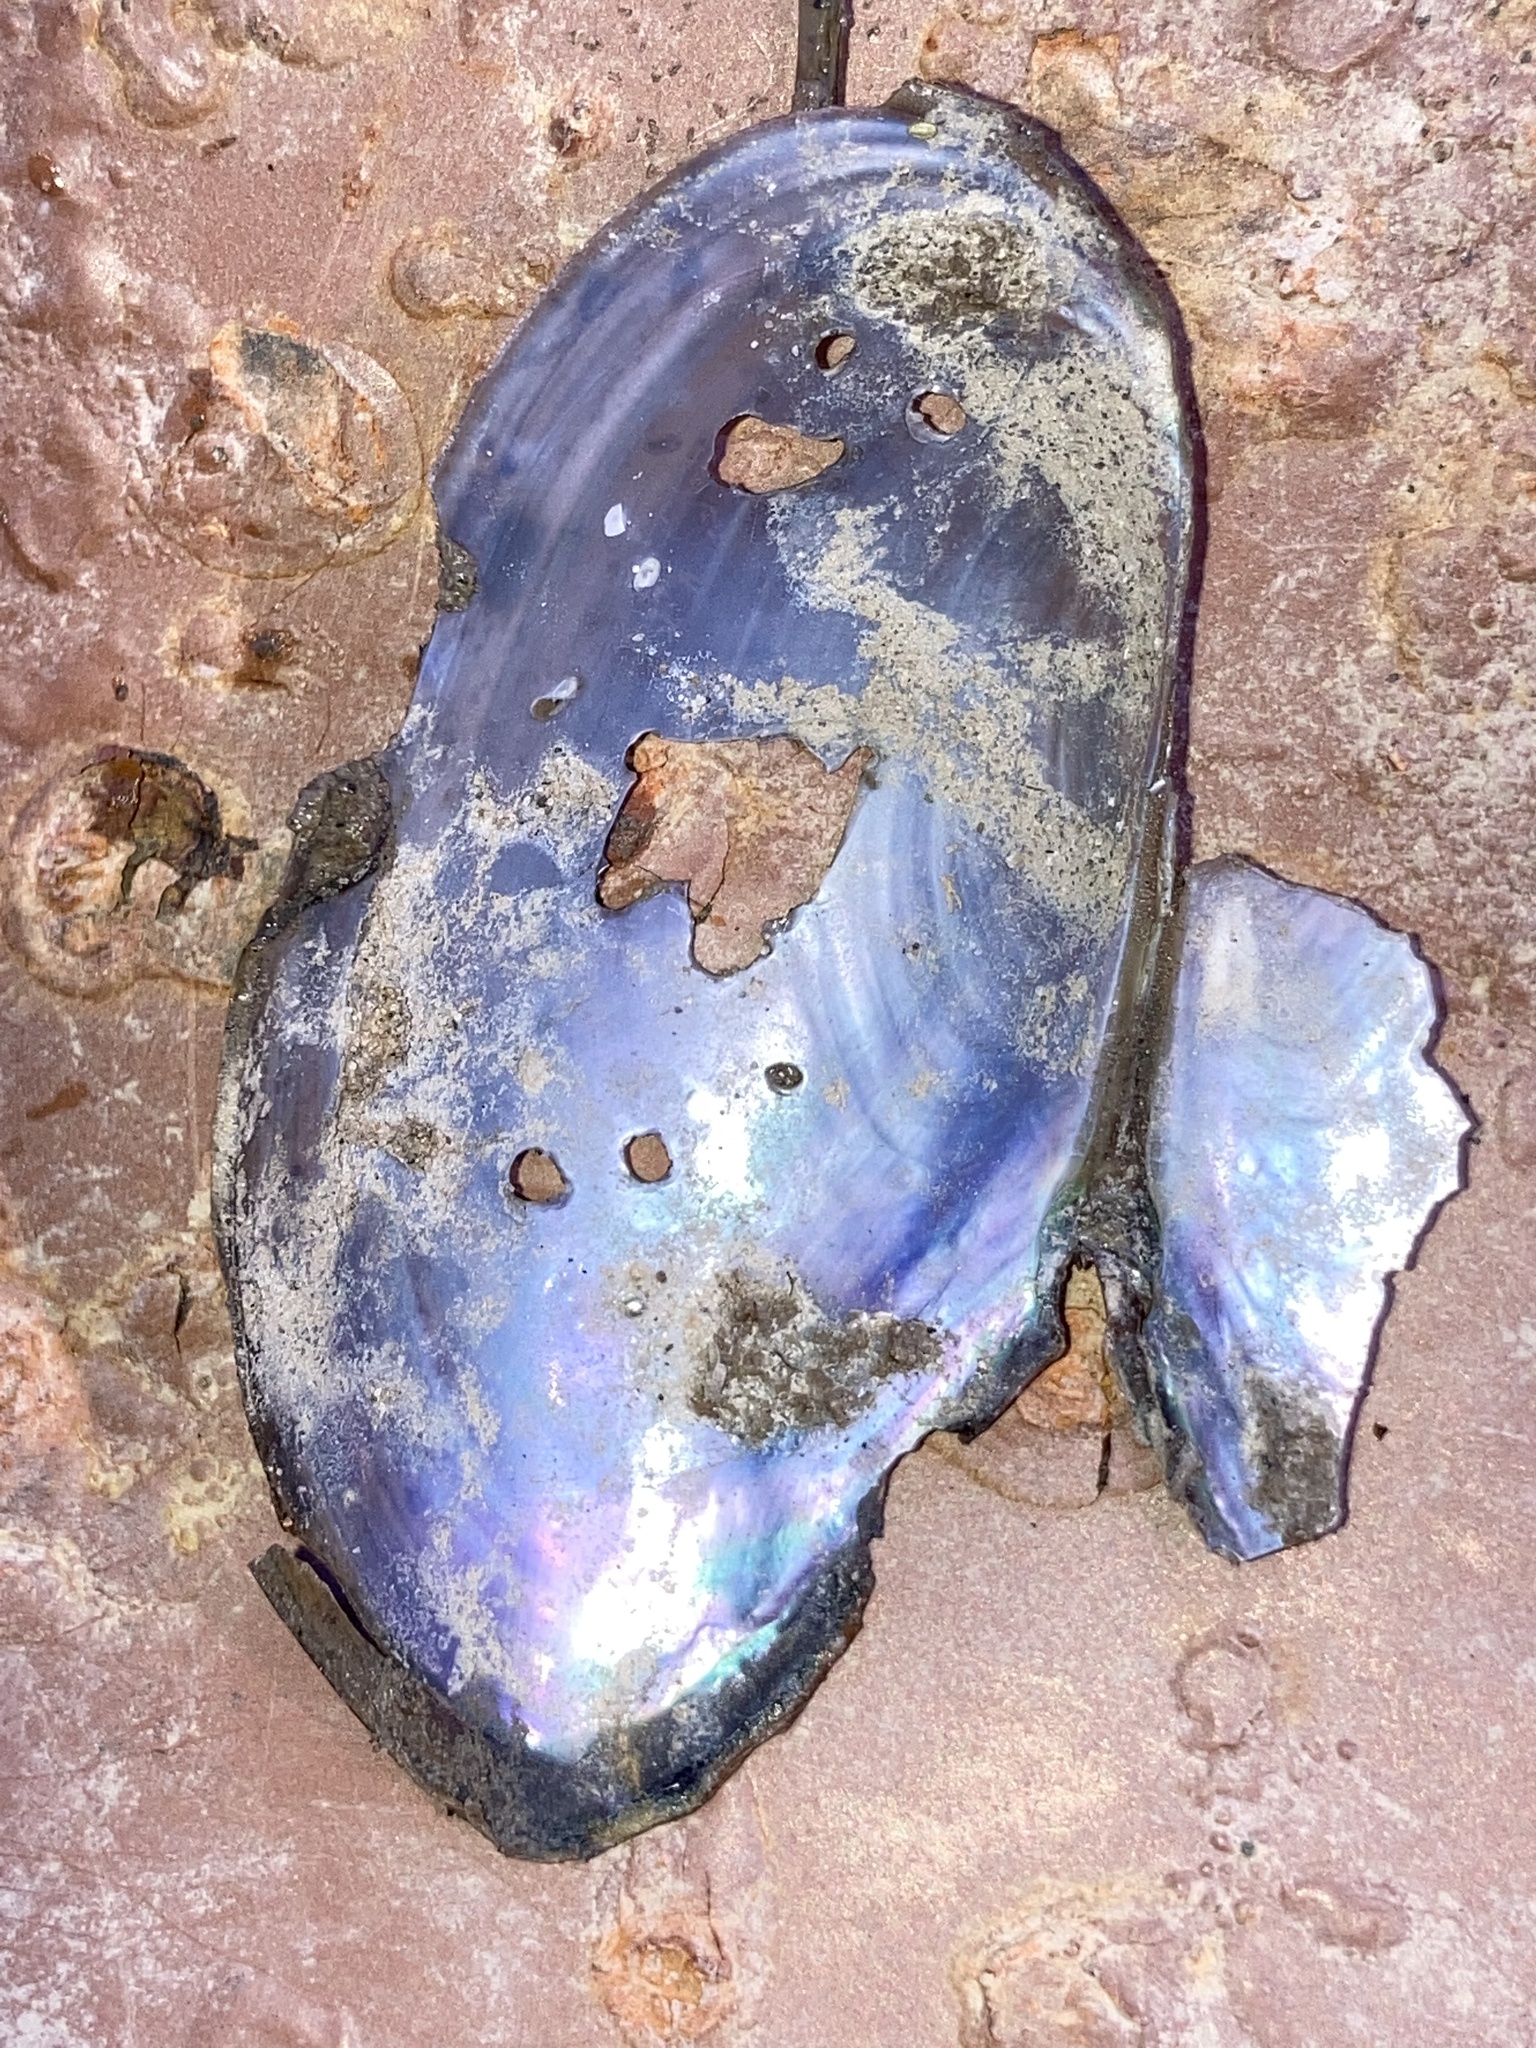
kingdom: Animalia
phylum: Mollusca
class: Bivalvia
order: Unionida
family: Unionidae
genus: Utterbackia
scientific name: Utterbackia imbecillis
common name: Paper pondshell
